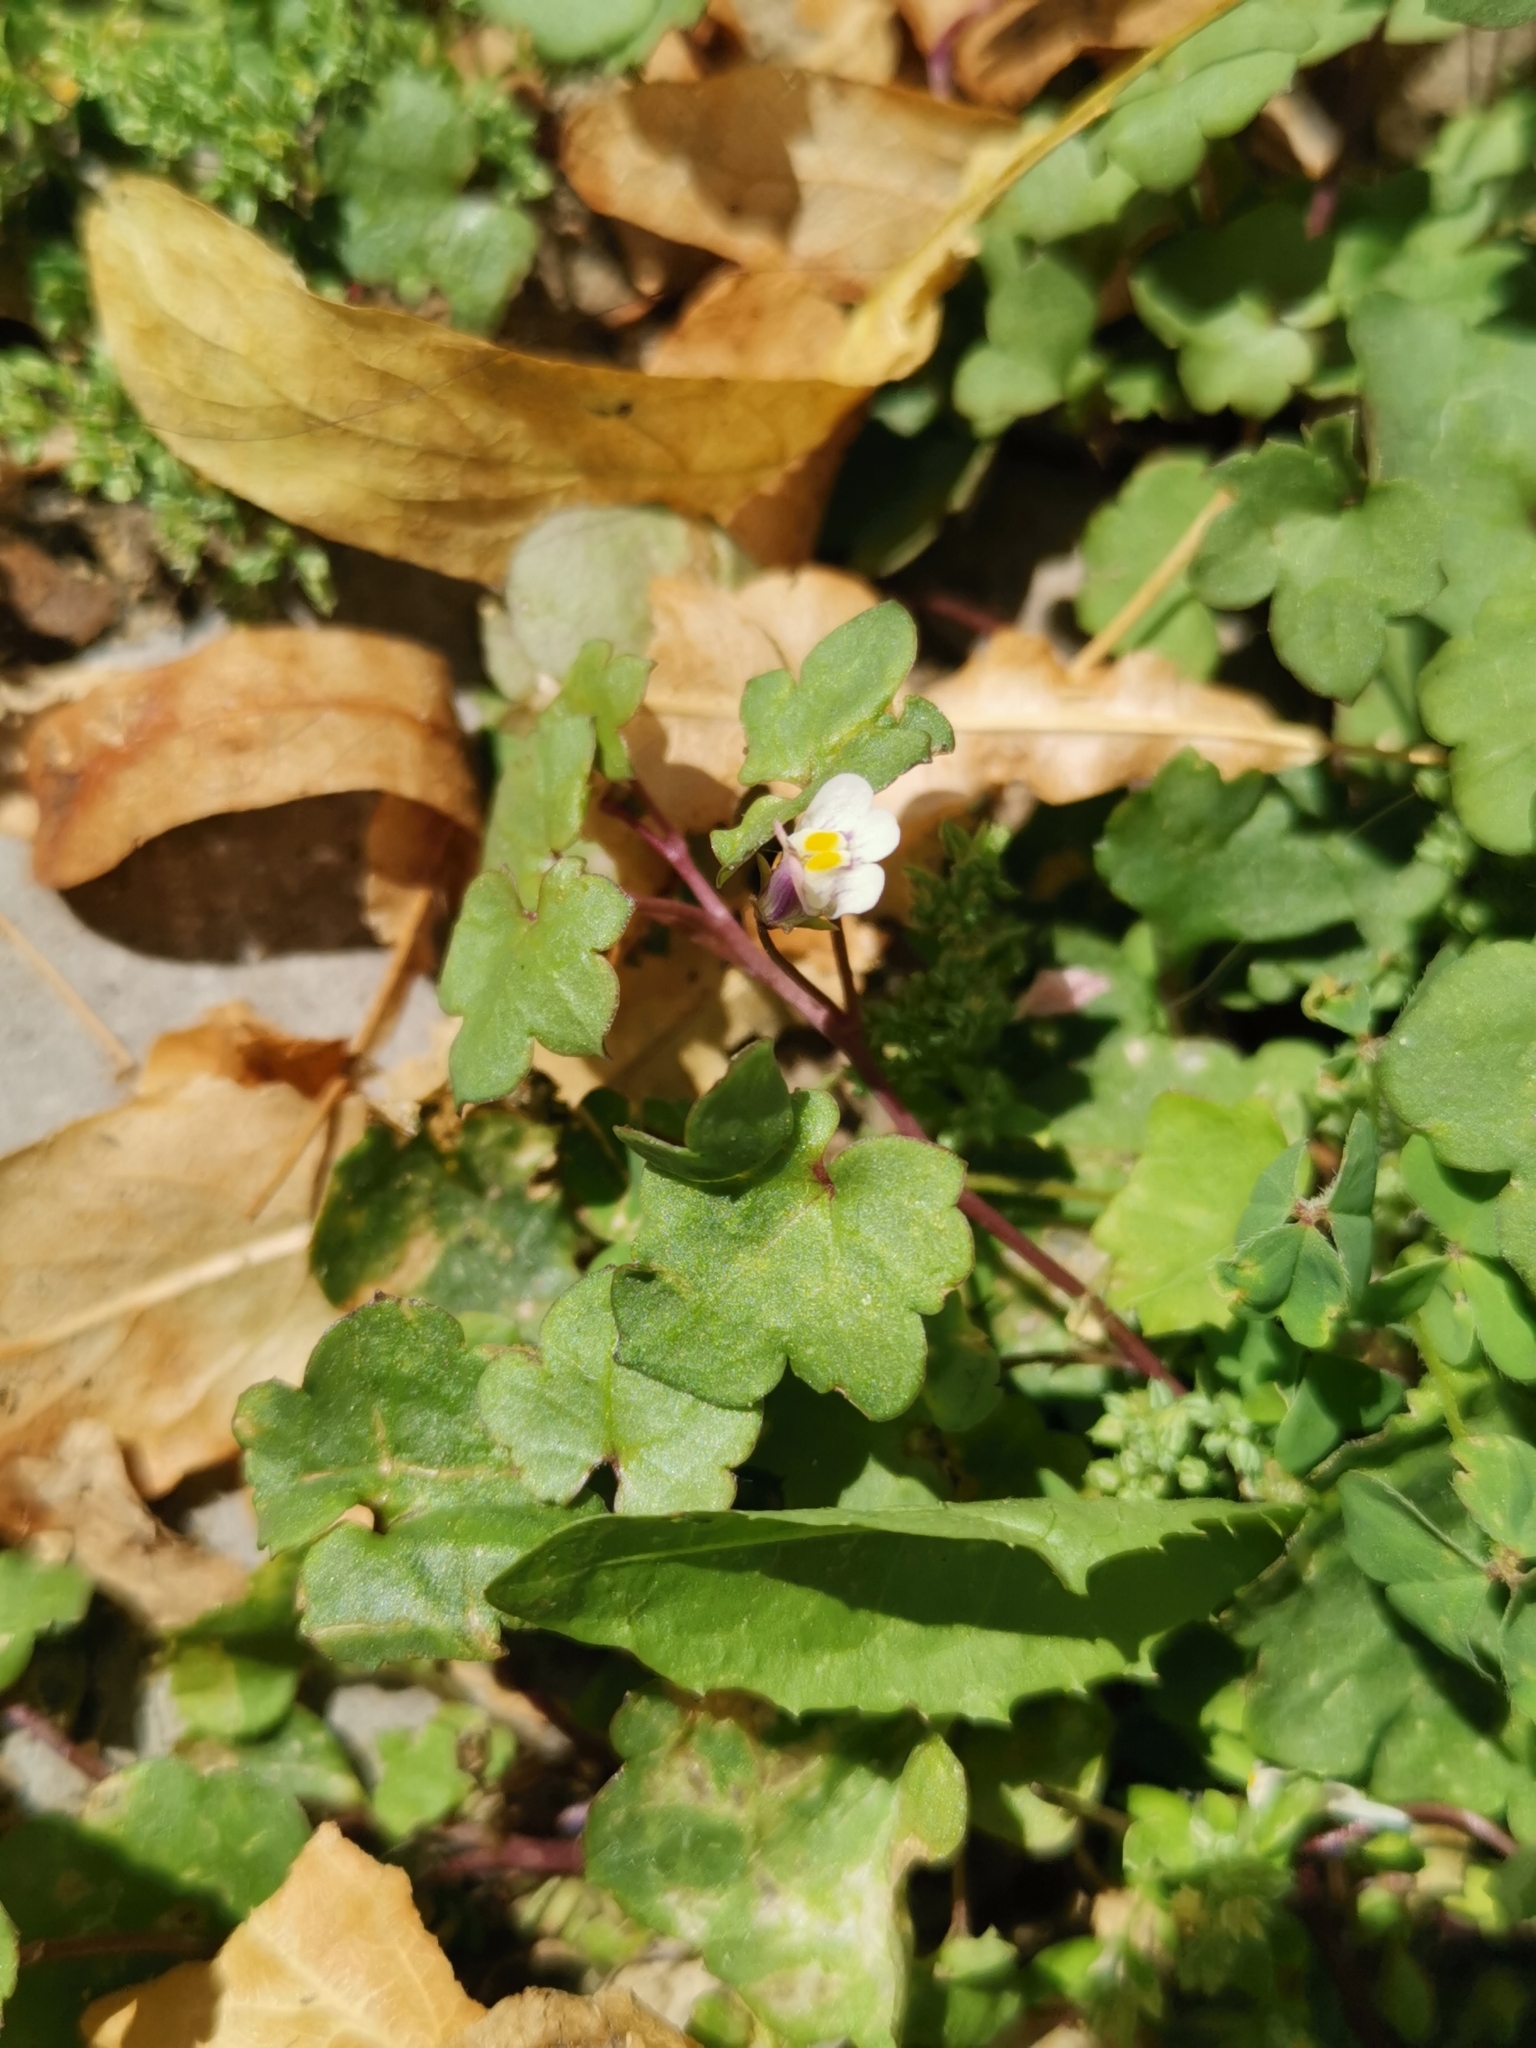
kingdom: Plantae
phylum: Tracheophyta
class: Magnoliopsida
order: Lamiales
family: Plantaginaceae
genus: Cymbalaria
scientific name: Cymbalaria muralis
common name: Ivy-leaved toadflax
